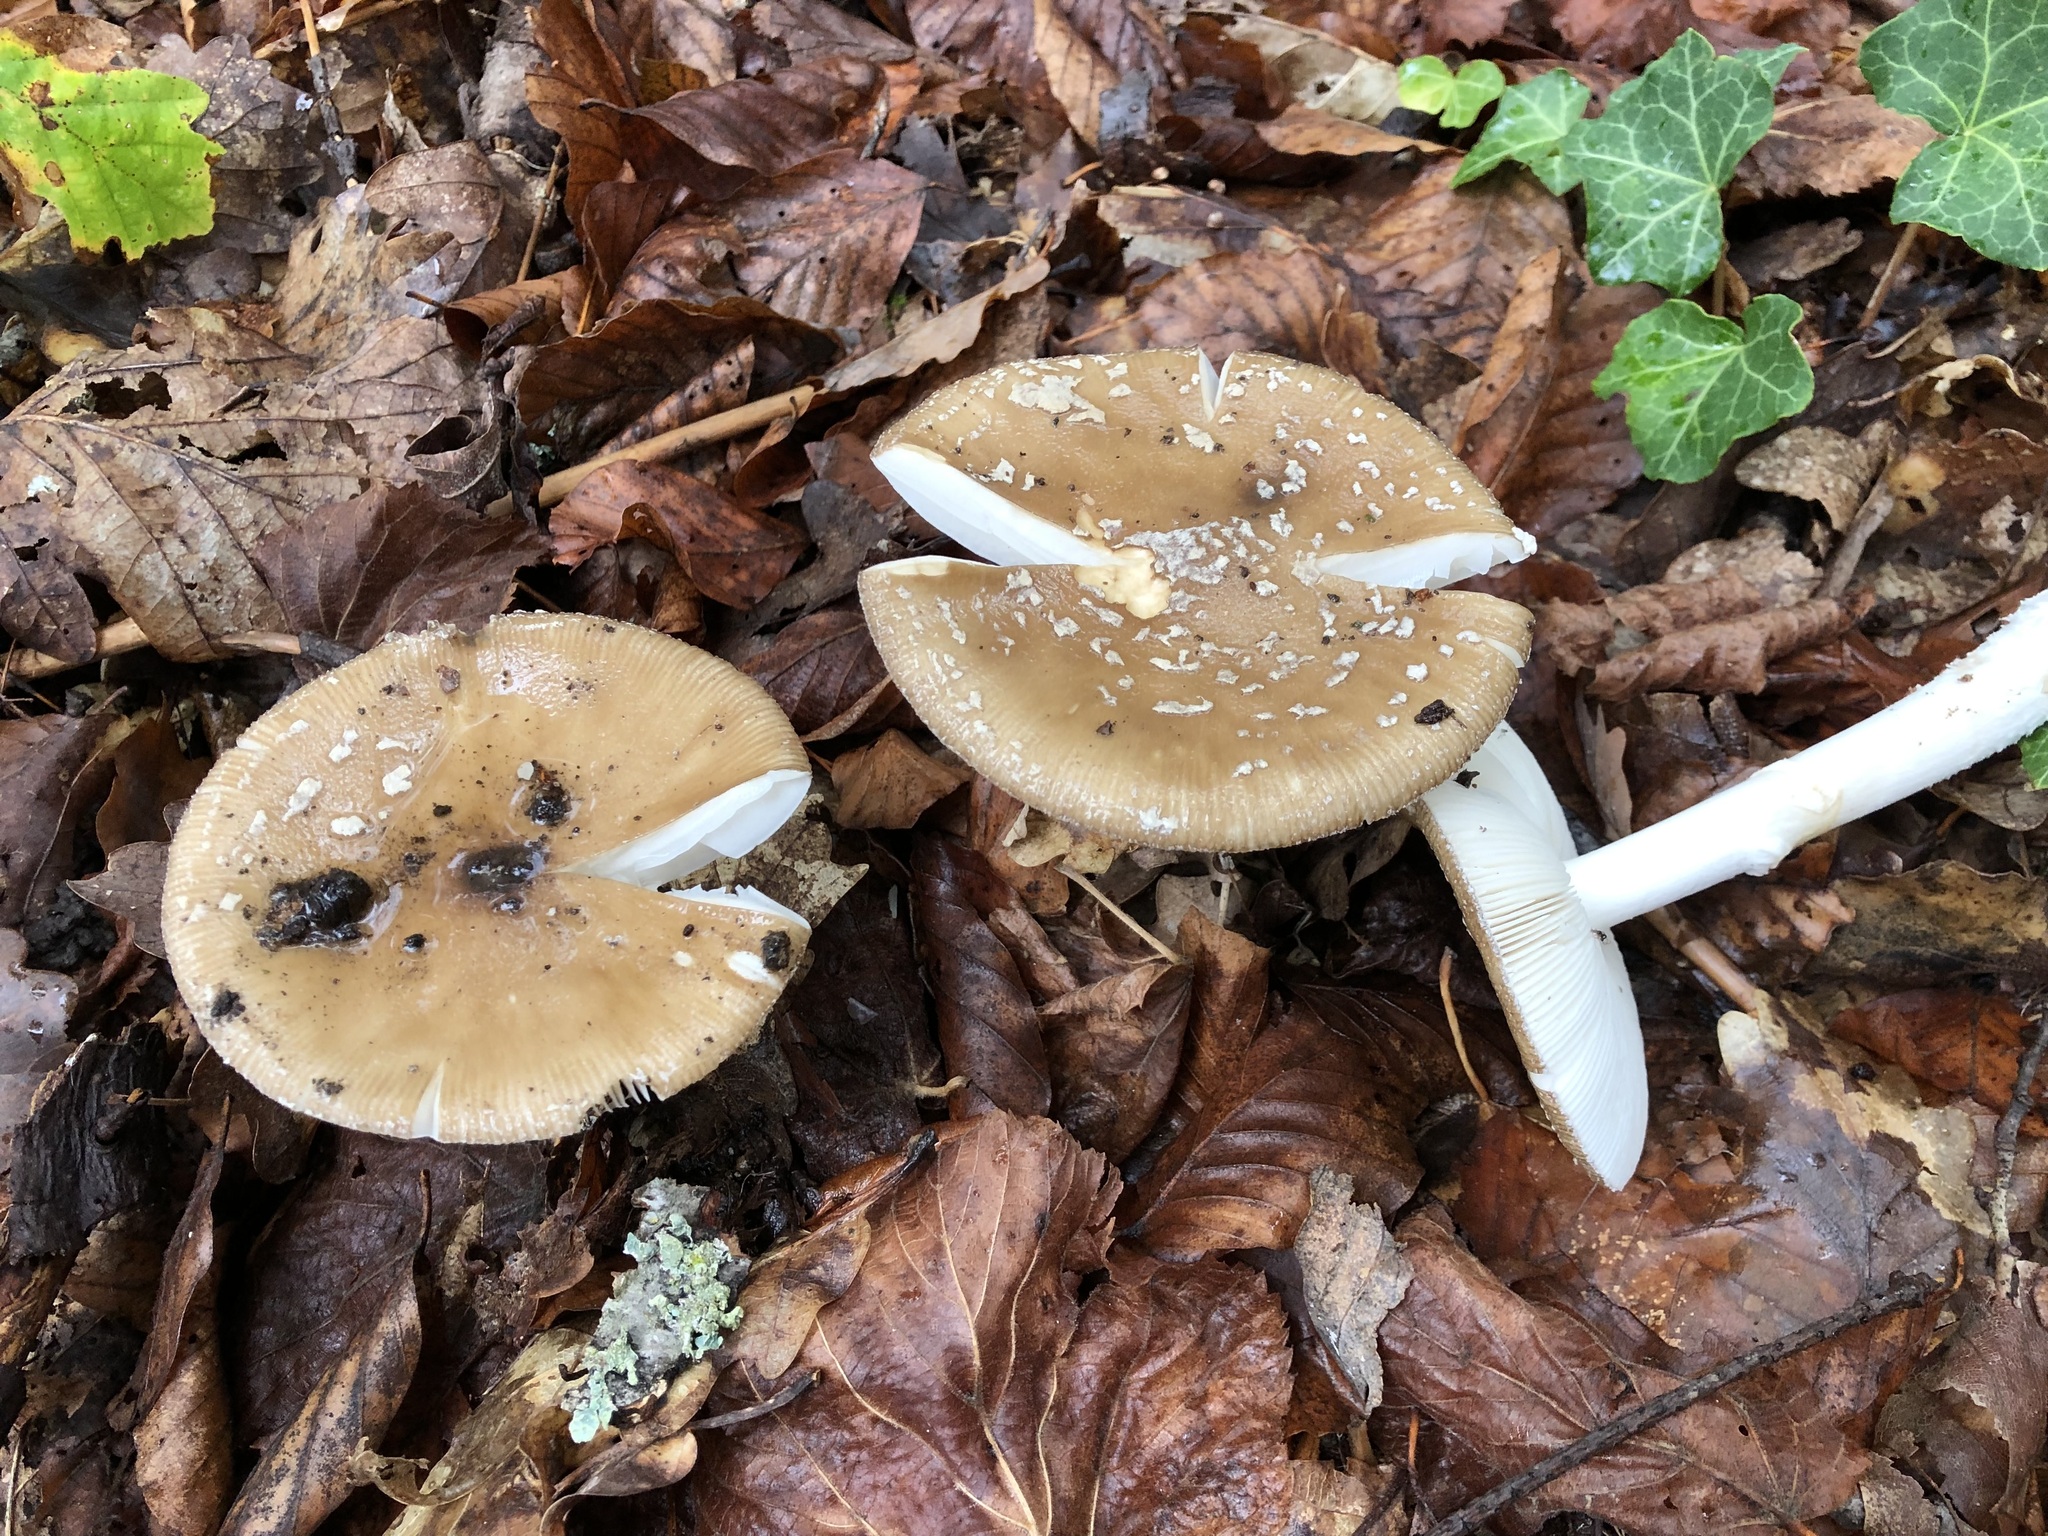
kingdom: Fungi
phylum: Basidiomycota
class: Agaricomycetes
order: Agaricales
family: Amanitaceae
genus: Amanita
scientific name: Amanita pantherina
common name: Panthercap
